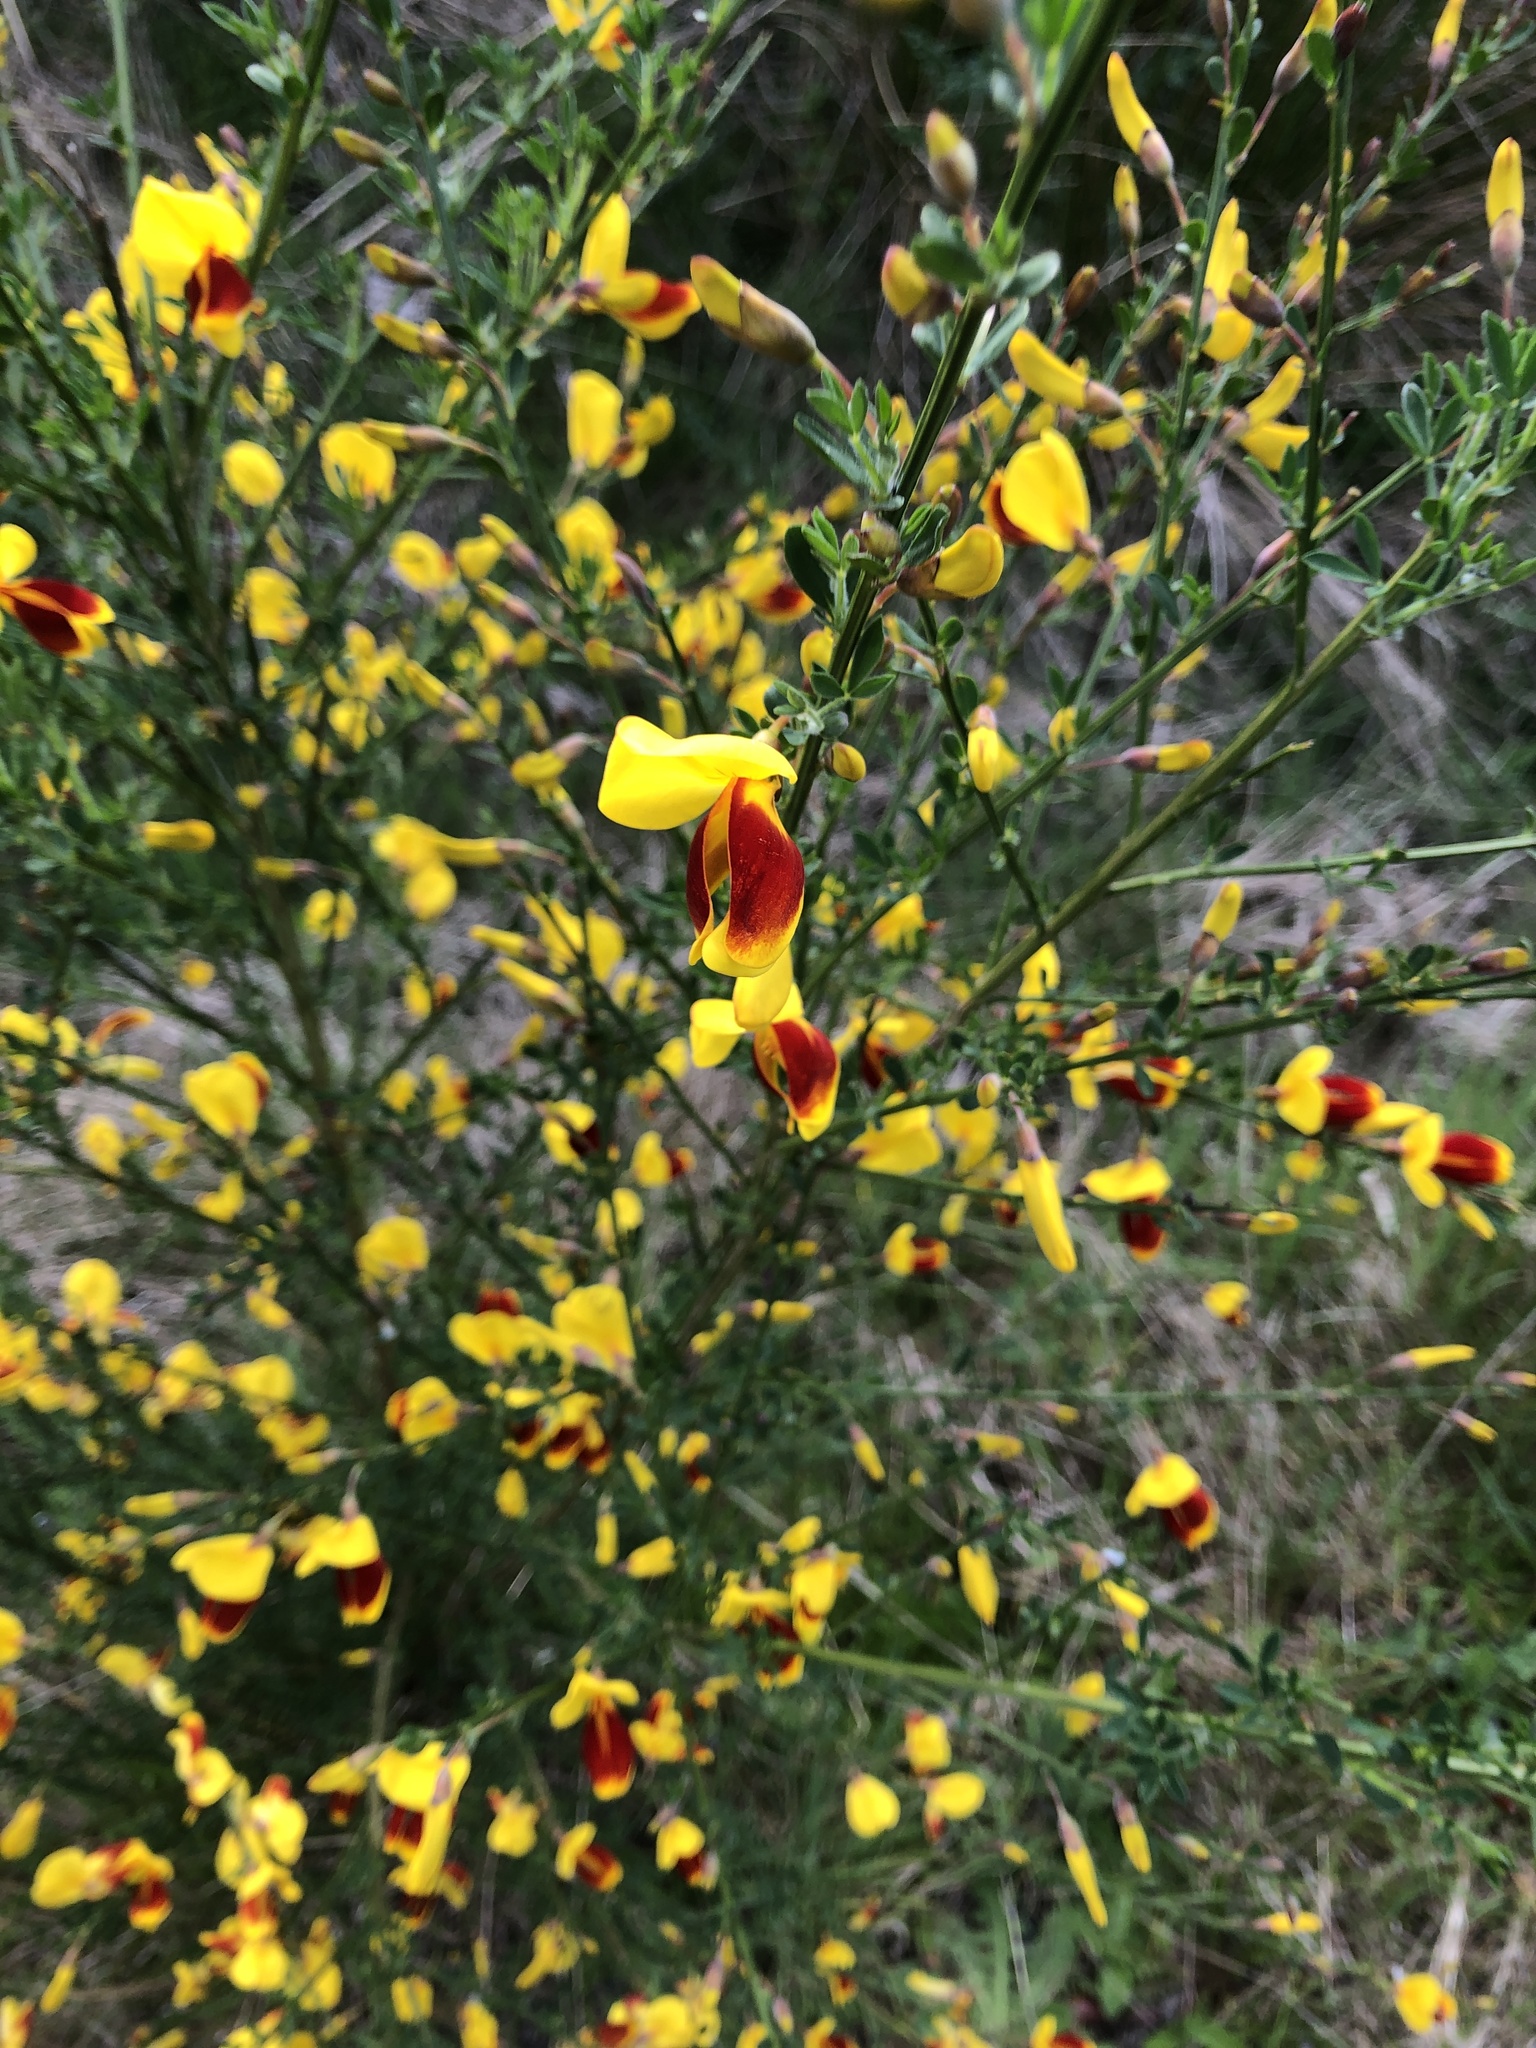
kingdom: Plantae
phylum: Tracheophyta
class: Magnoliopsida
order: Fabales
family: Fabaceae
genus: Cytisus
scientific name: Cytisus scoparius
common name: Scotch broom
